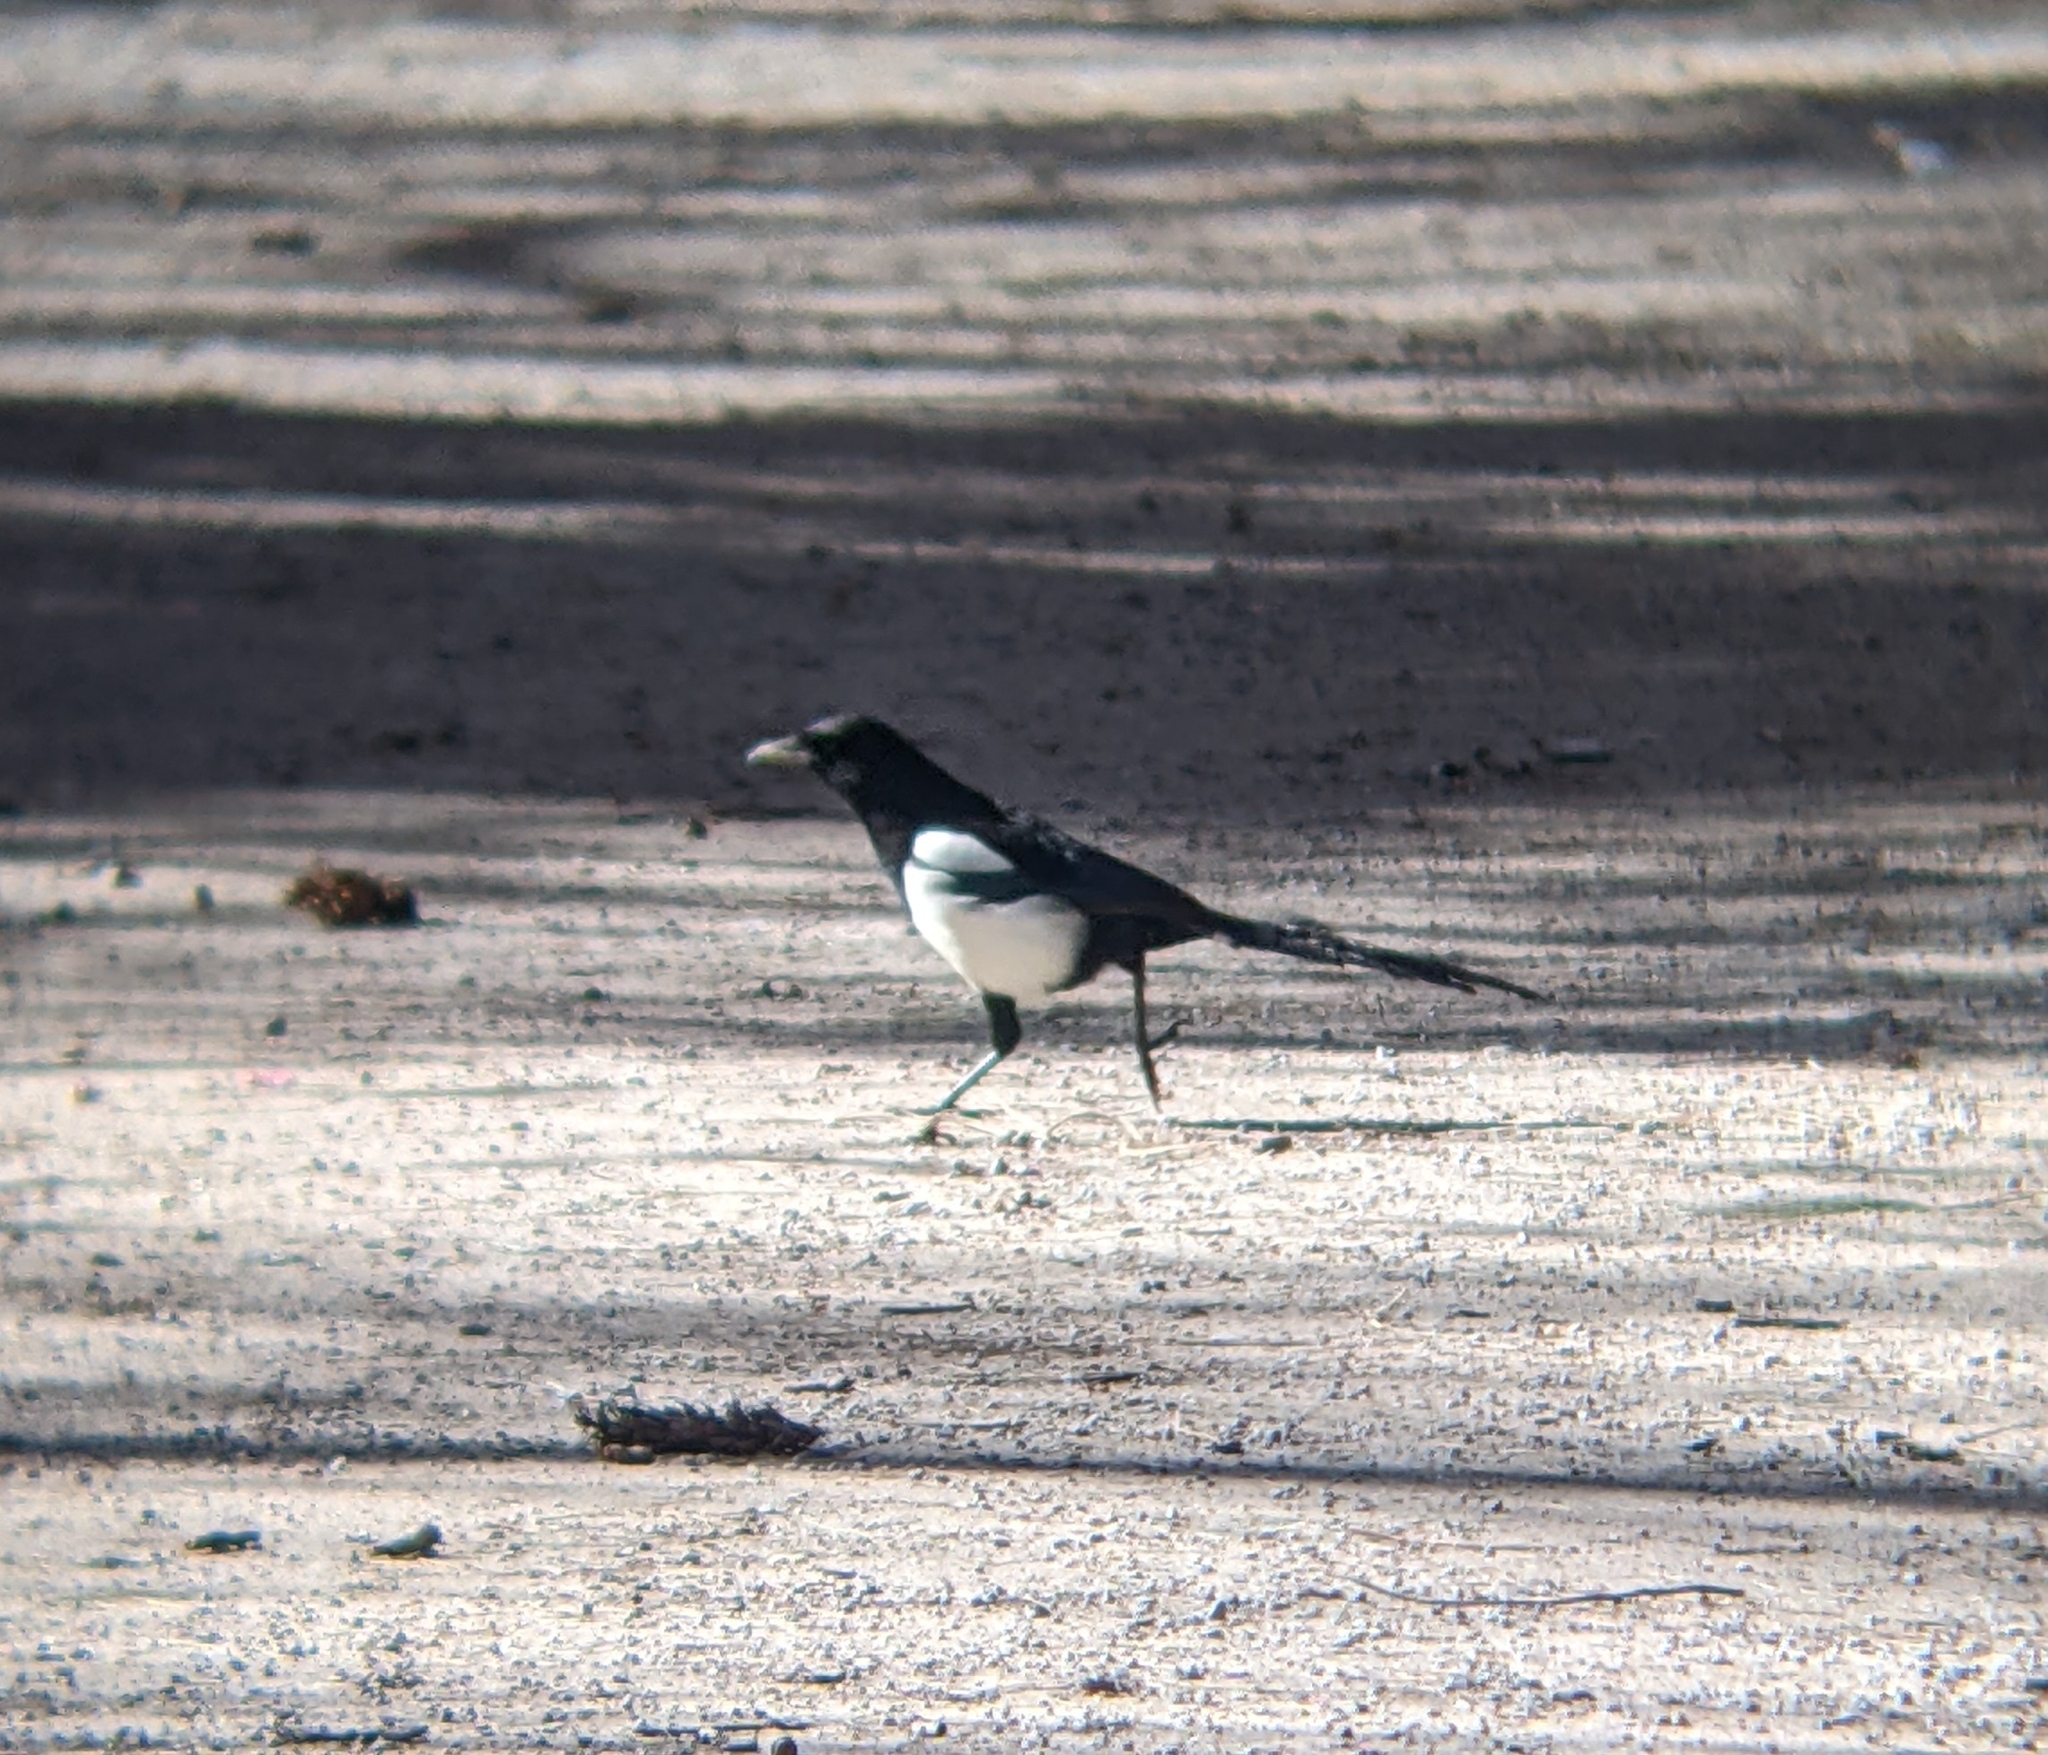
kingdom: Animalia
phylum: Chordata
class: Aves
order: Passeriformes
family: Corvidae
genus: Pica
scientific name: Pica pica
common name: Eurasian magpie
